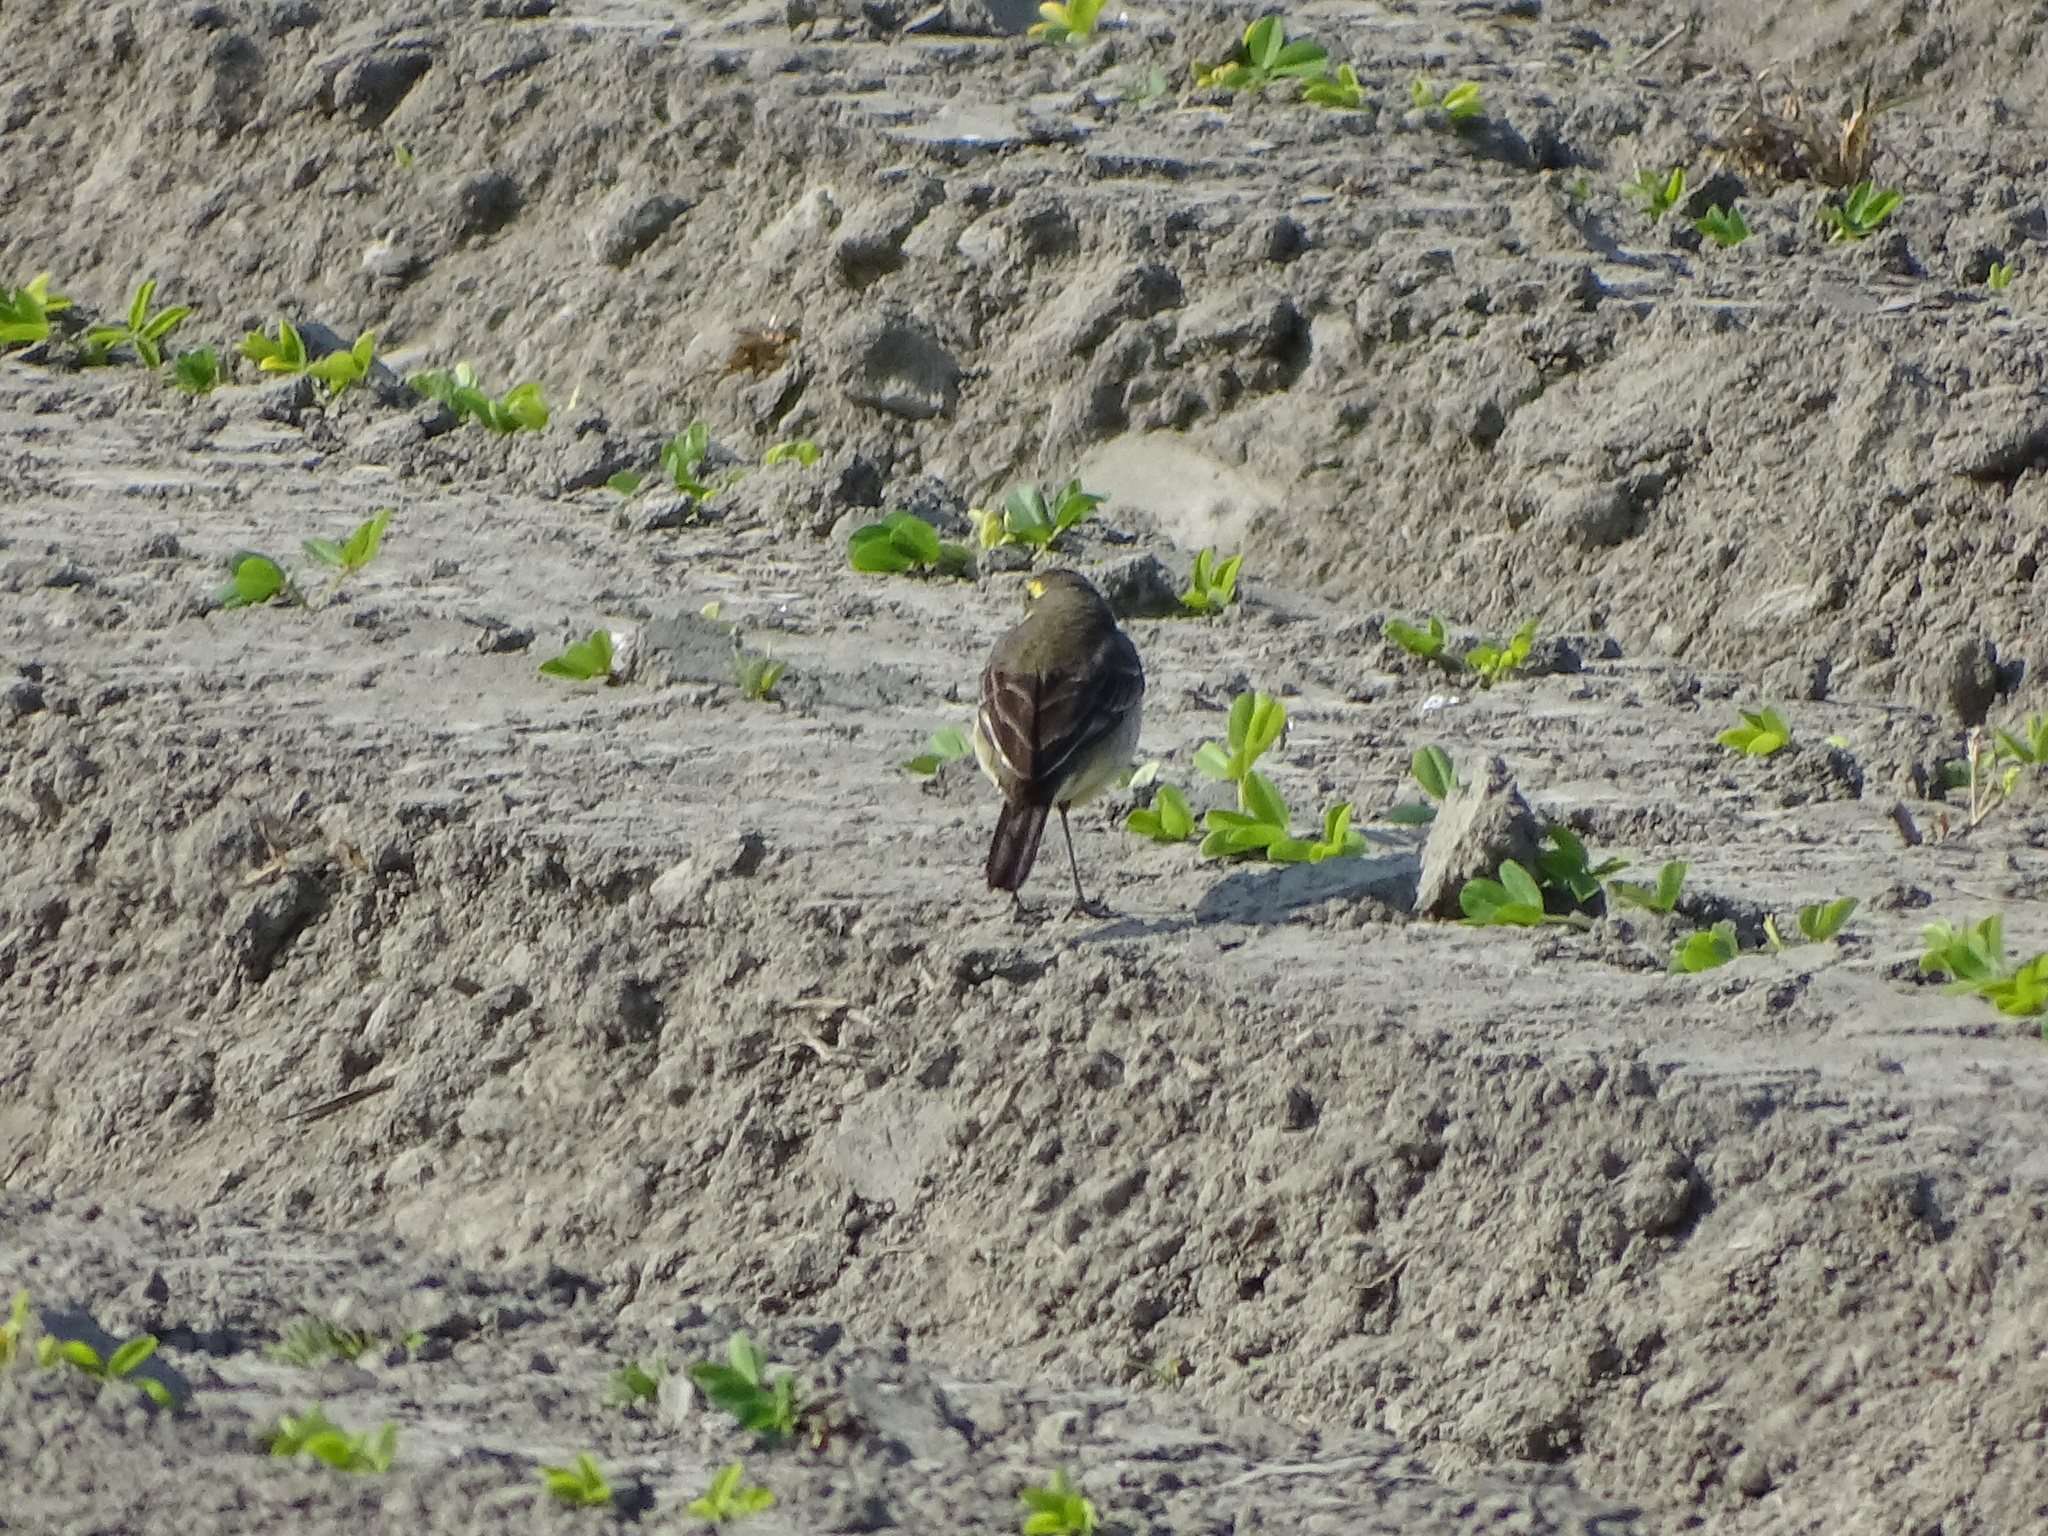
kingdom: Animalia
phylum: Chordata
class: Aves
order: Passeriformes
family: Motacillidae
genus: Motacilla
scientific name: Motacilla tschutschensis
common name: Eastern yellow wagtail
